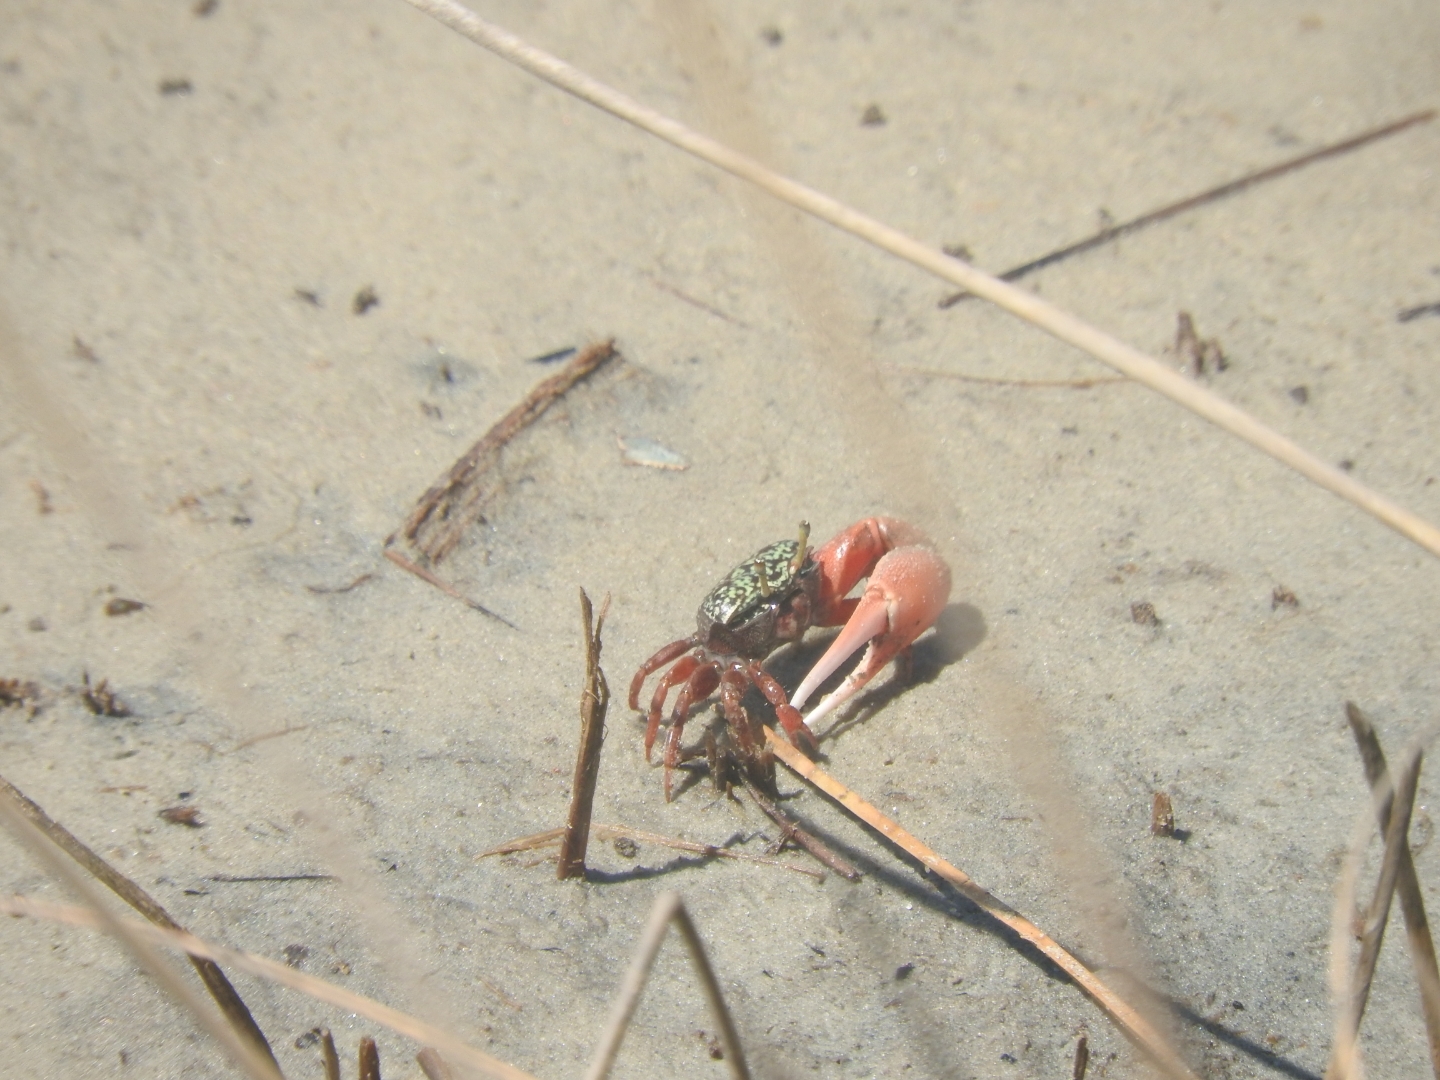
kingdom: Animalia
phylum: Arthropoda
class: Malacostraca
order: Decapoda
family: Ocypodidae
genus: Leptuca
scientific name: Leptuca uruguayensis
